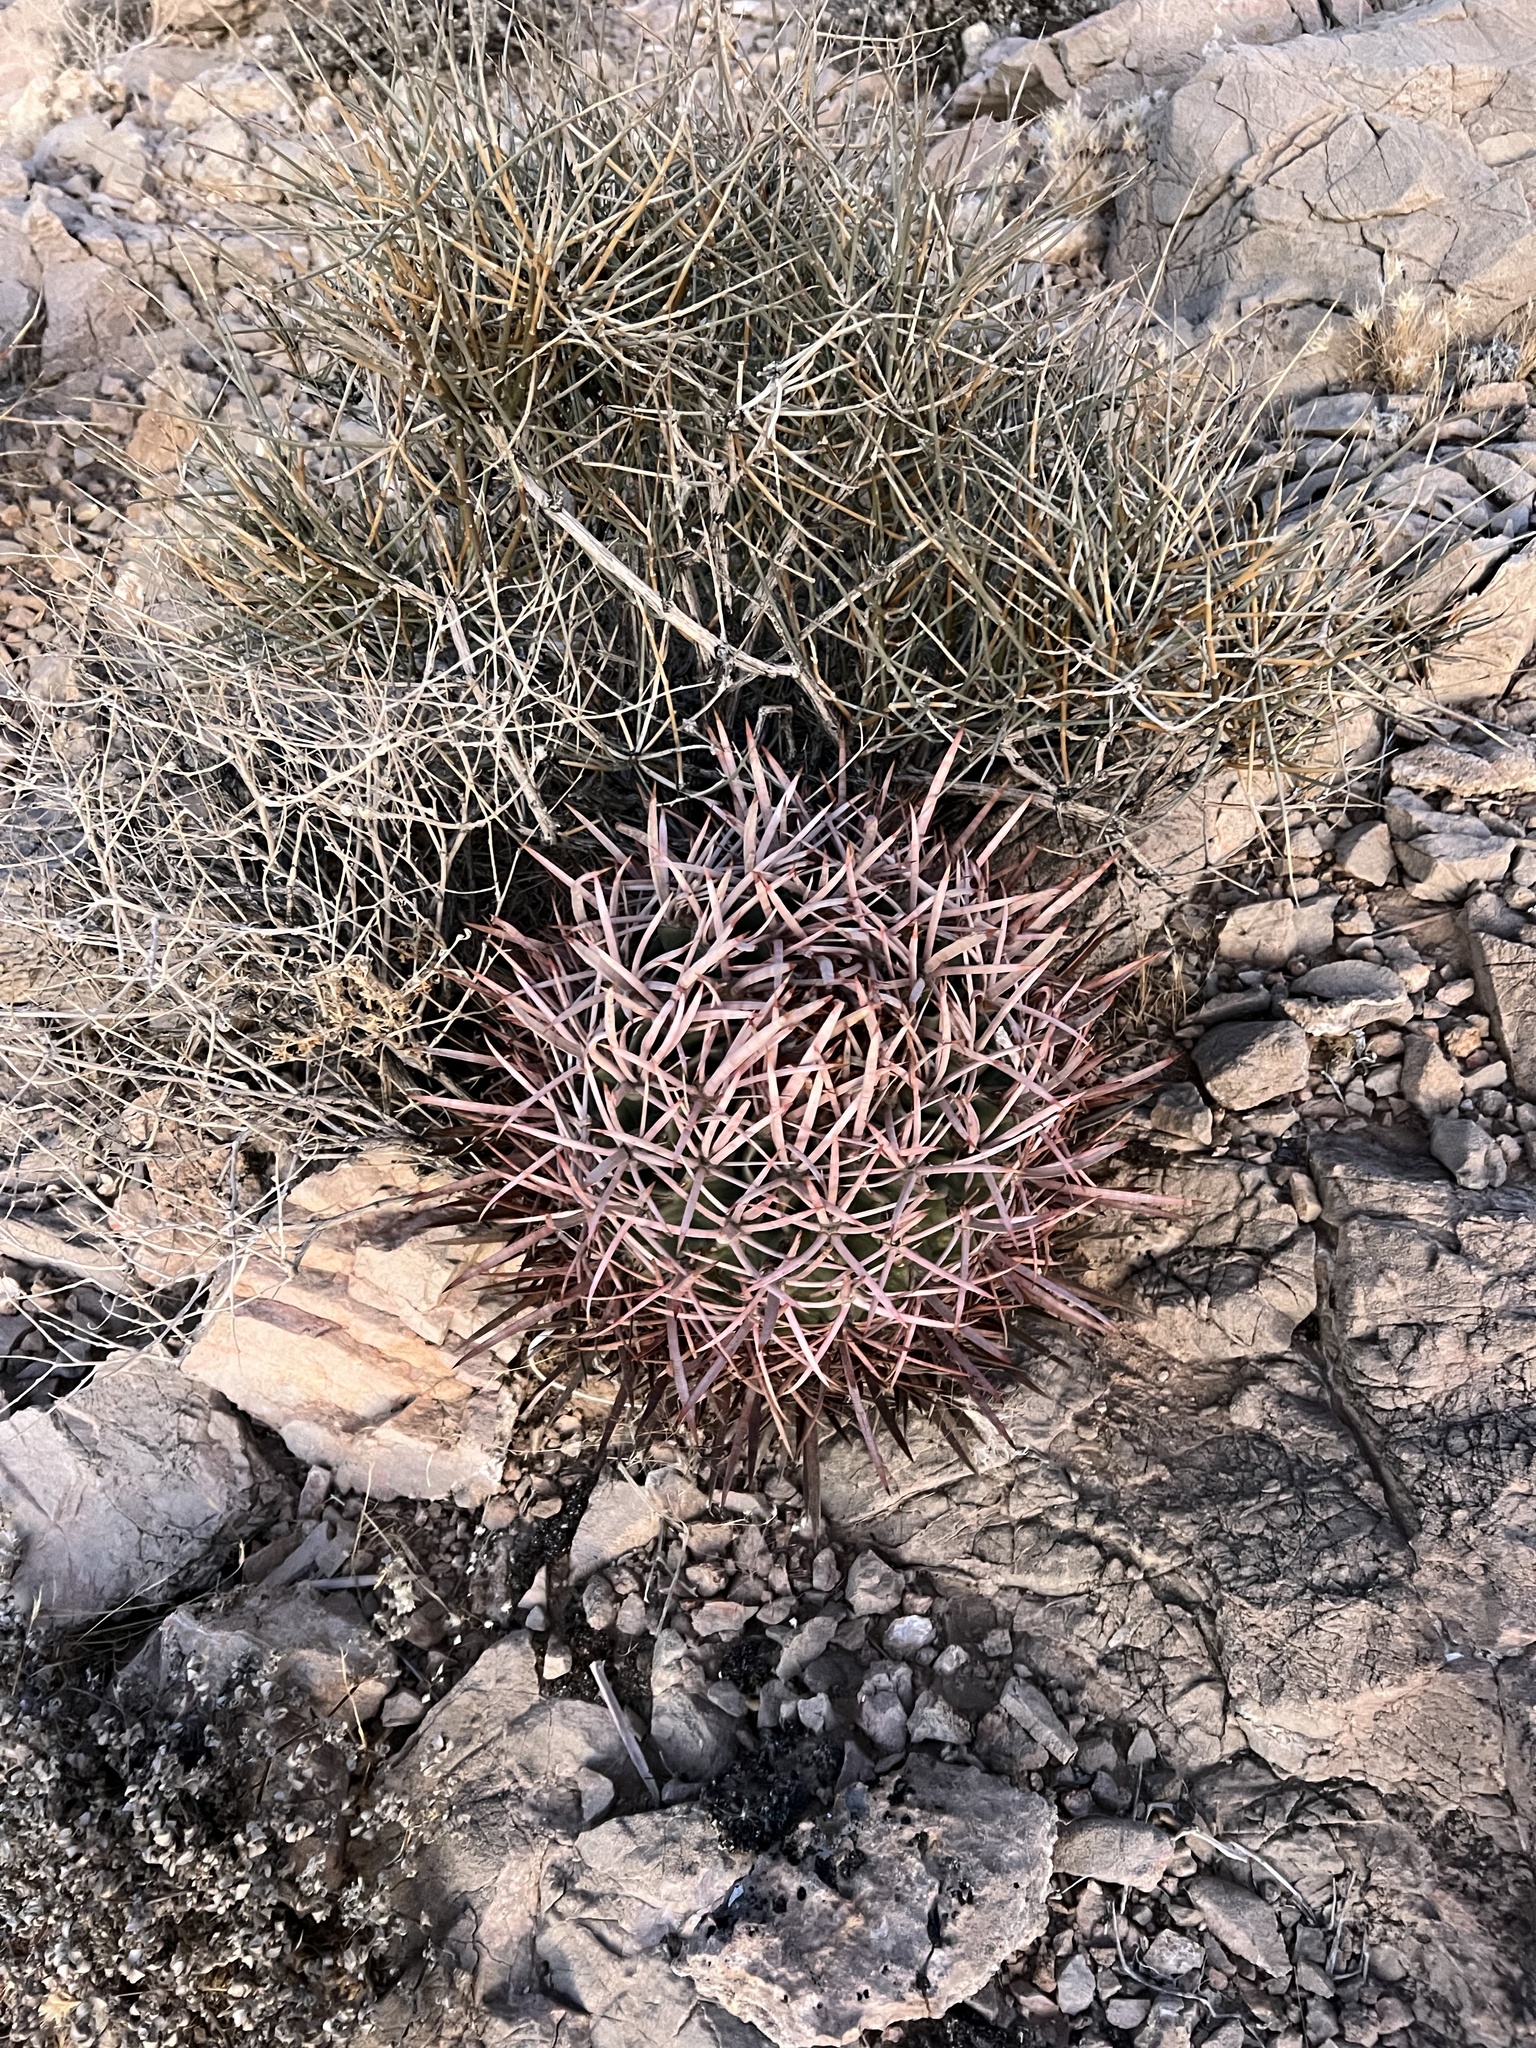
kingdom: Plantae
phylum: Tracheophyta
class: Magnoliopsida
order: Caryophyllales
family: Cactaceae
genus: Echinocactus
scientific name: Echinocactus polycephalus
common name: Cottontop cactus
